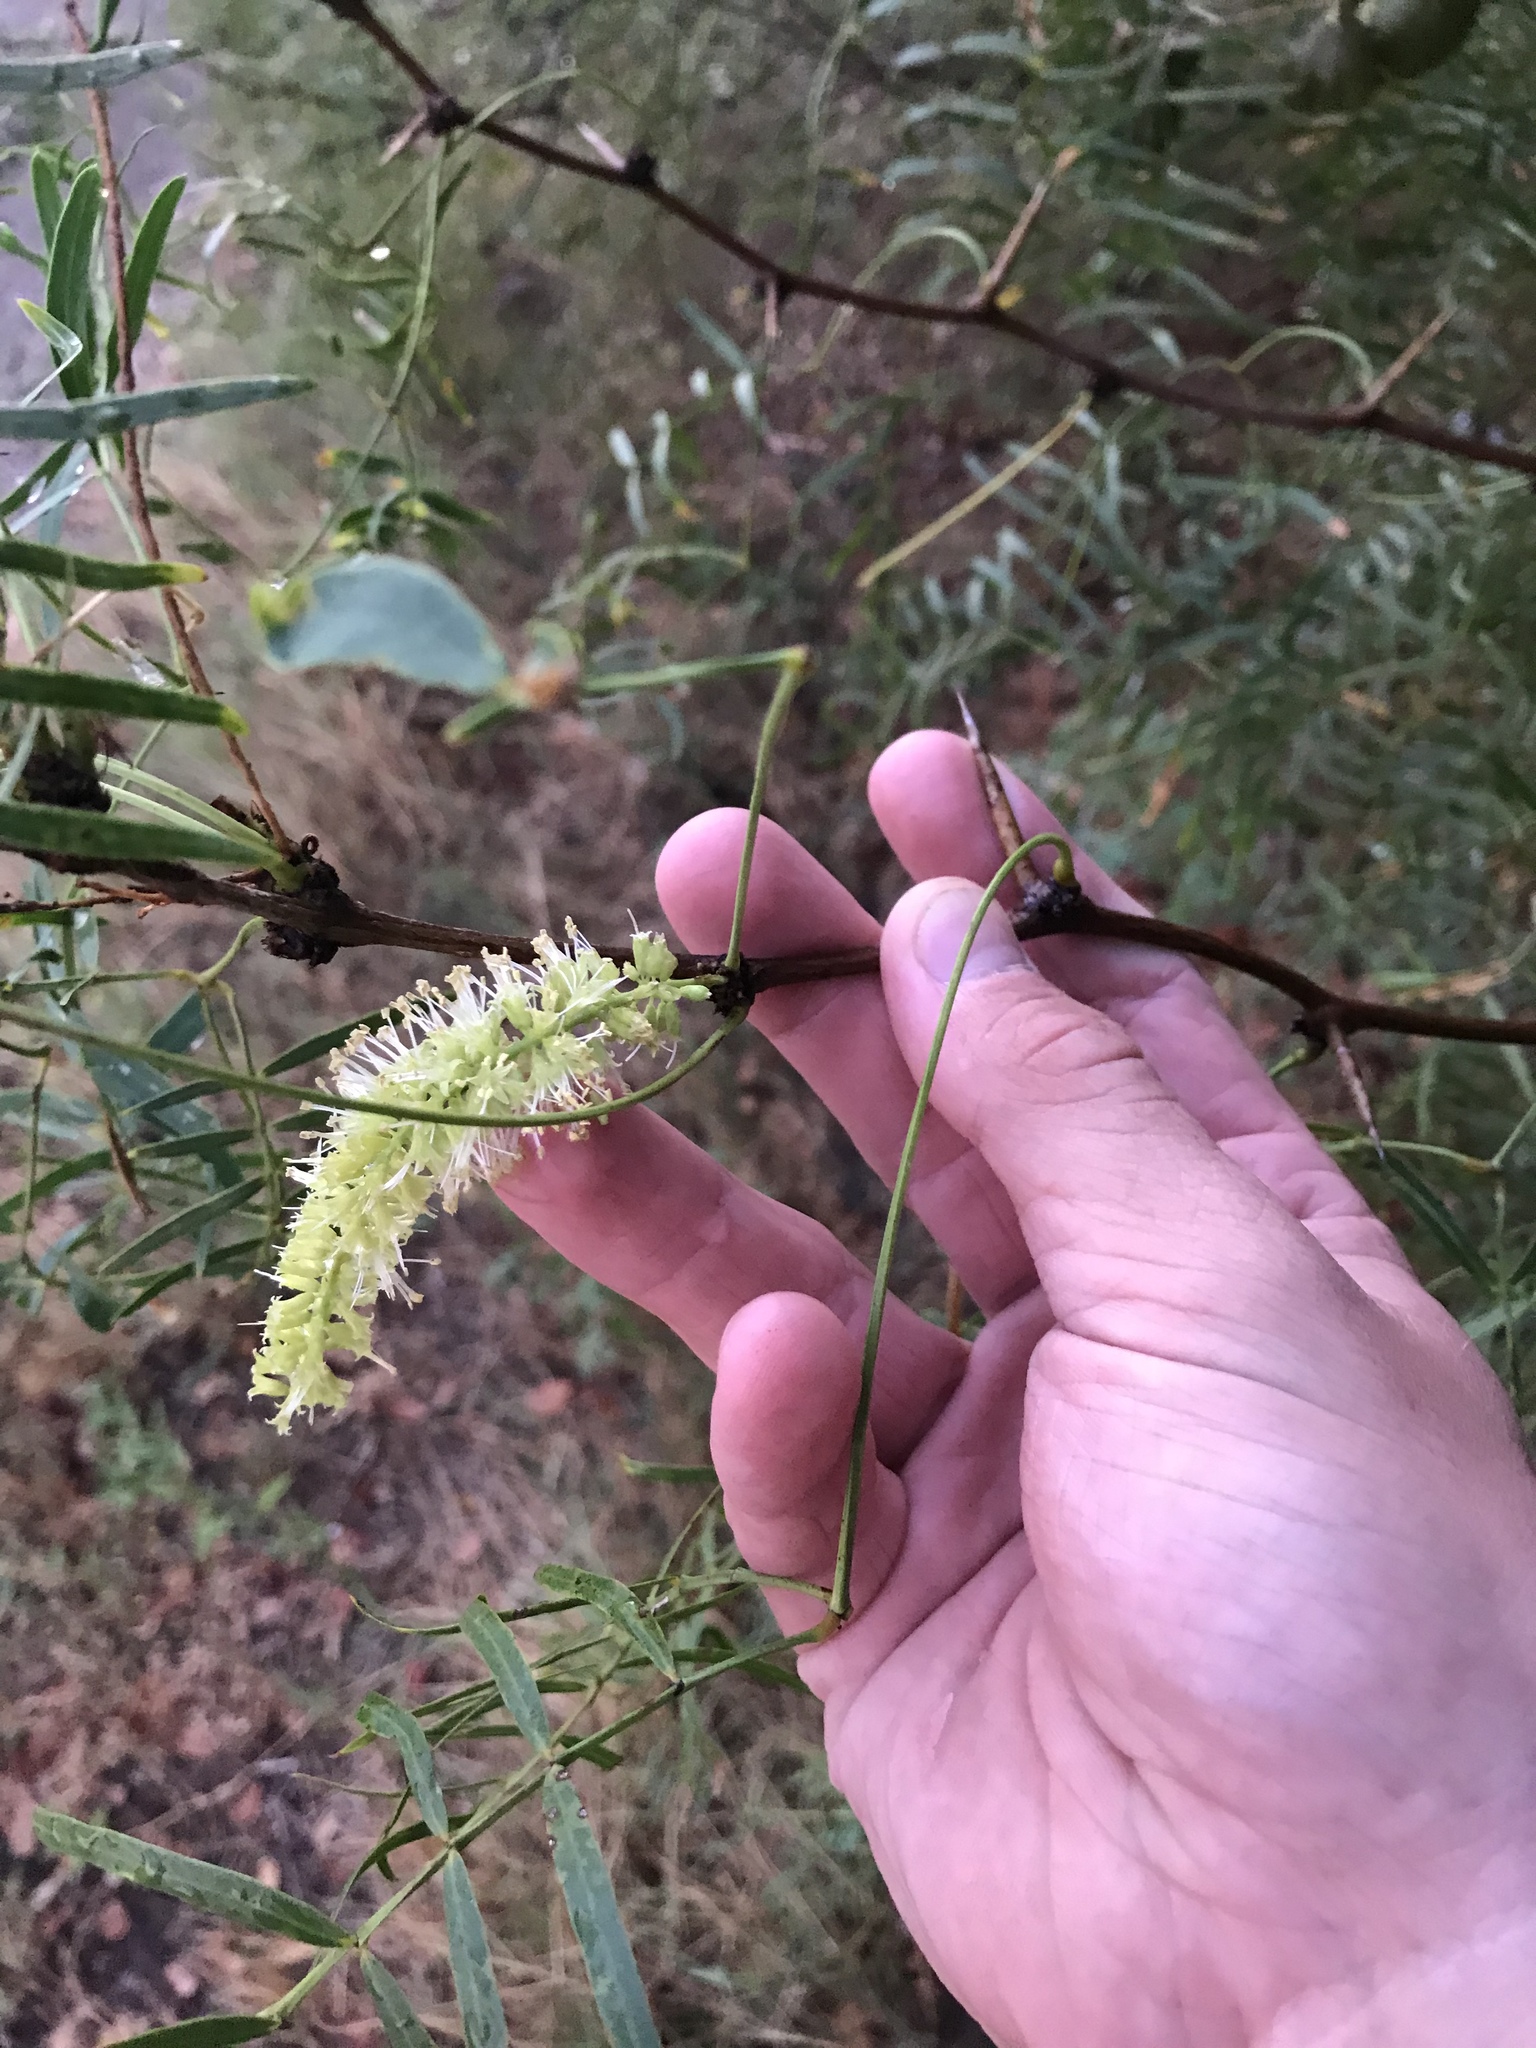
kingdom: Plantae
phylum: Tracheophyta
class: Magnoliopsida
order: Fabales
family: Fabaceae
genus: Prosopis
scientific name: Prosopis glandulosa
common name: Honey mesquite
